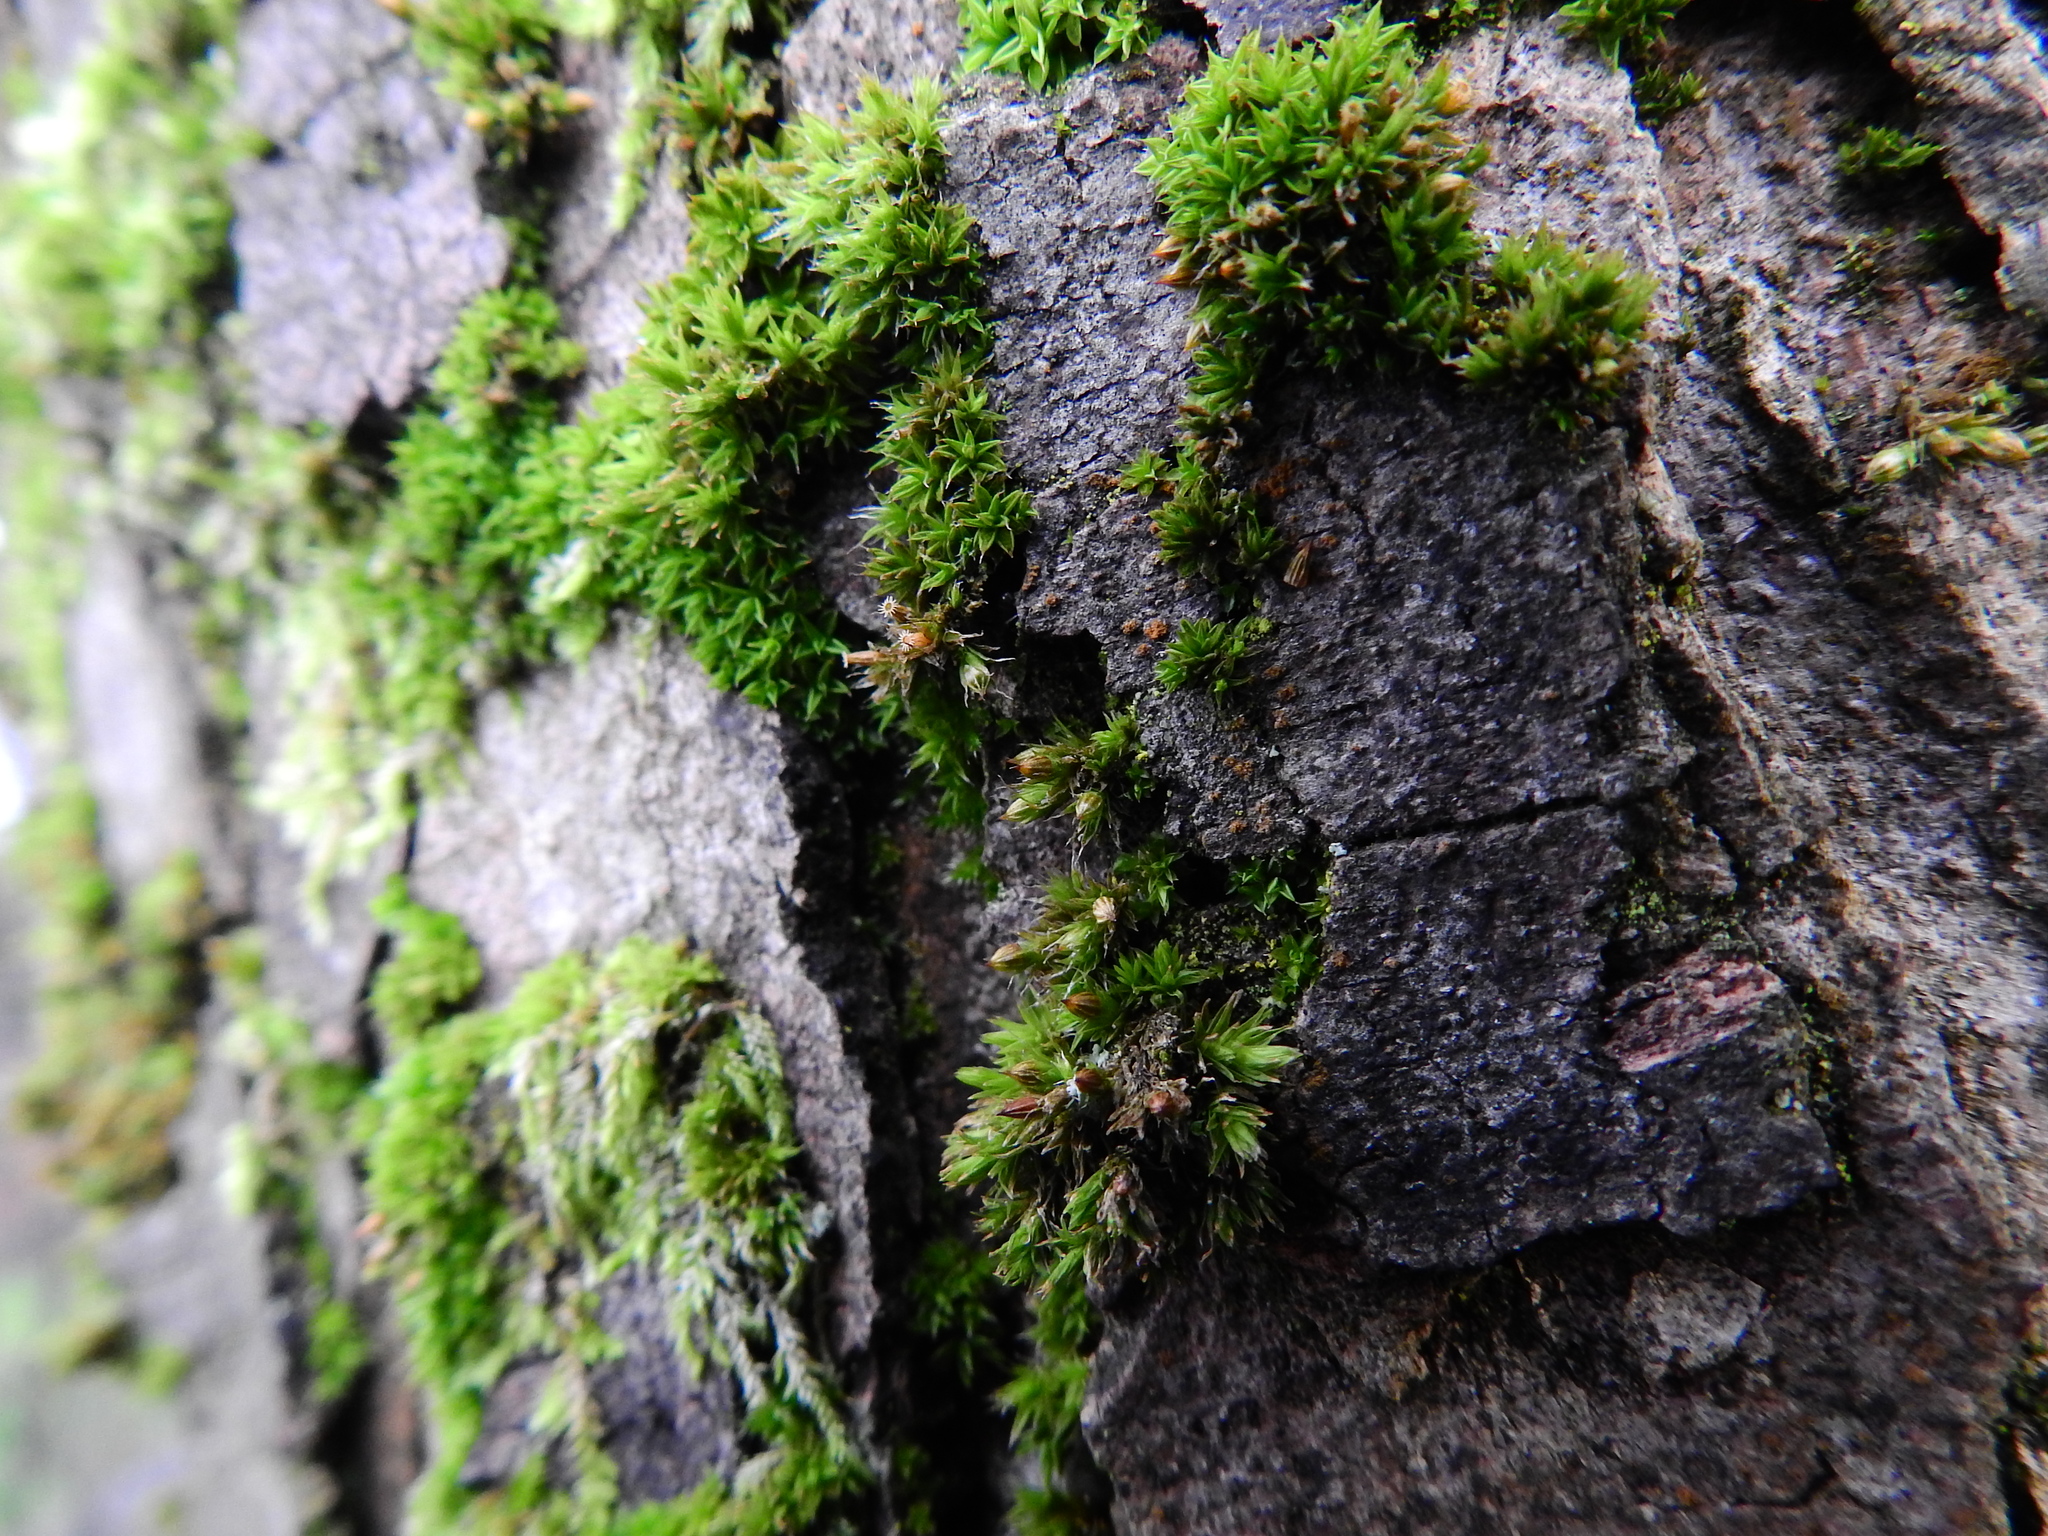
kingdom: Plantae
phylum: Bryophyta
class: Bryopsida
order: Orthotrichales
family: Orthotrichaceae
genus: Orthotrichum
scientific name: Orthotrichum diaphanum
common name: White-tipped bristle-moss
